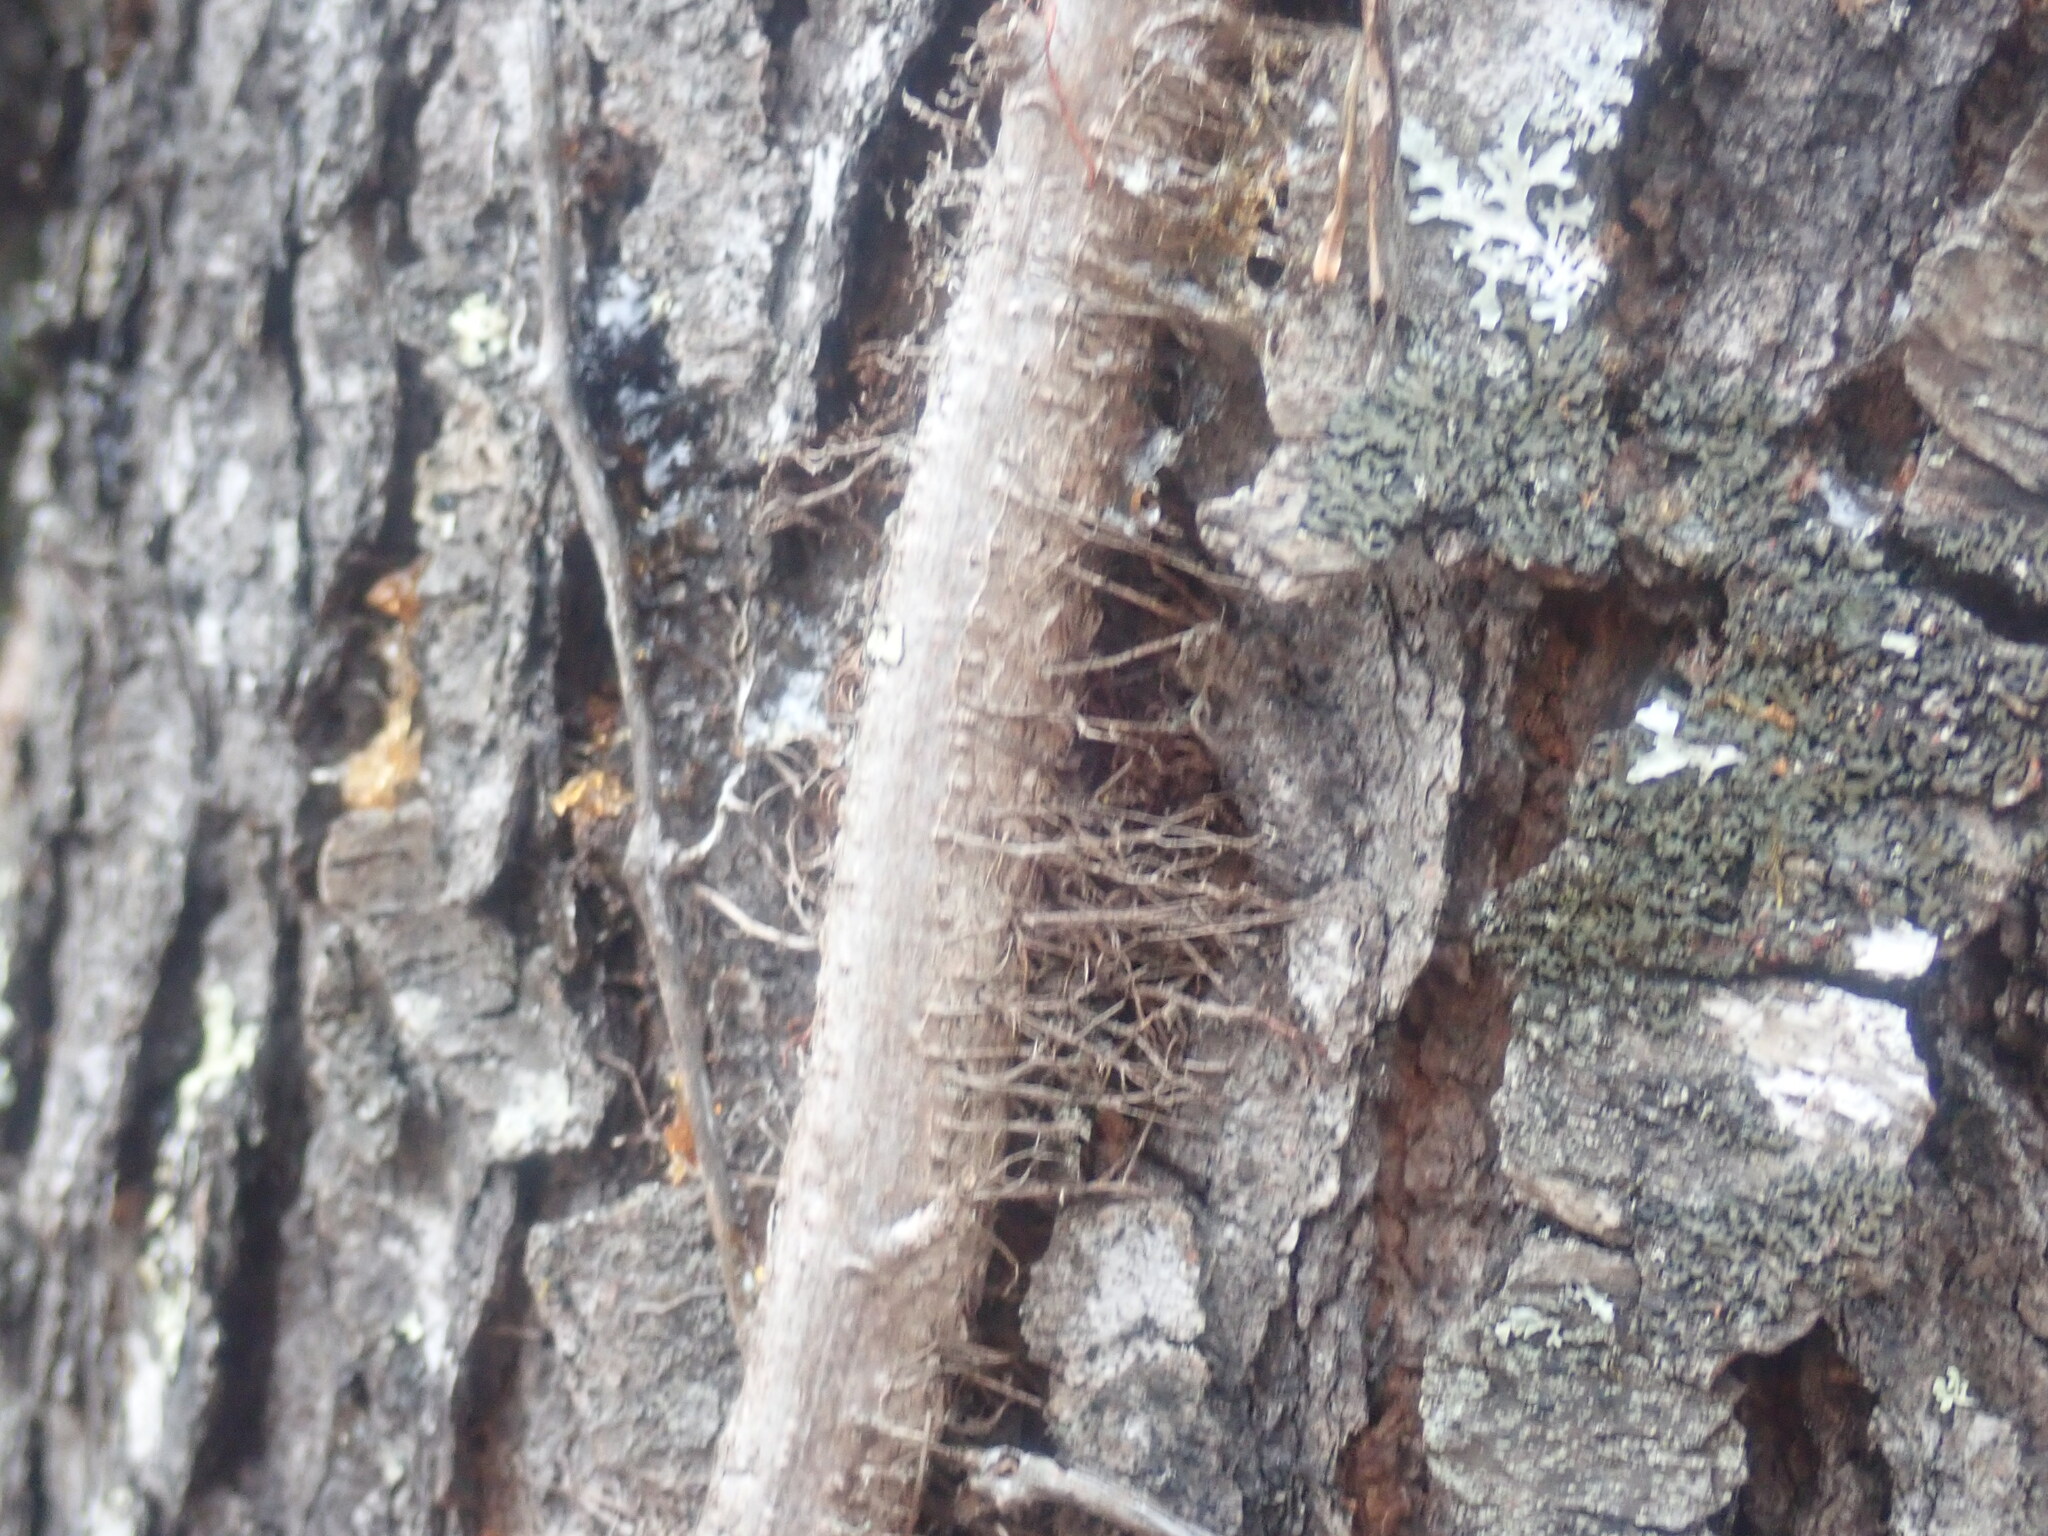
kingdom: Plantae
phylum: Tracheophyta
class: Magnoliopsida
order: Sapindales
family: Anacardiaceae
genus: Toxicodendron
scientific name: Toxicodendron radicans
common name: Poison ivy
